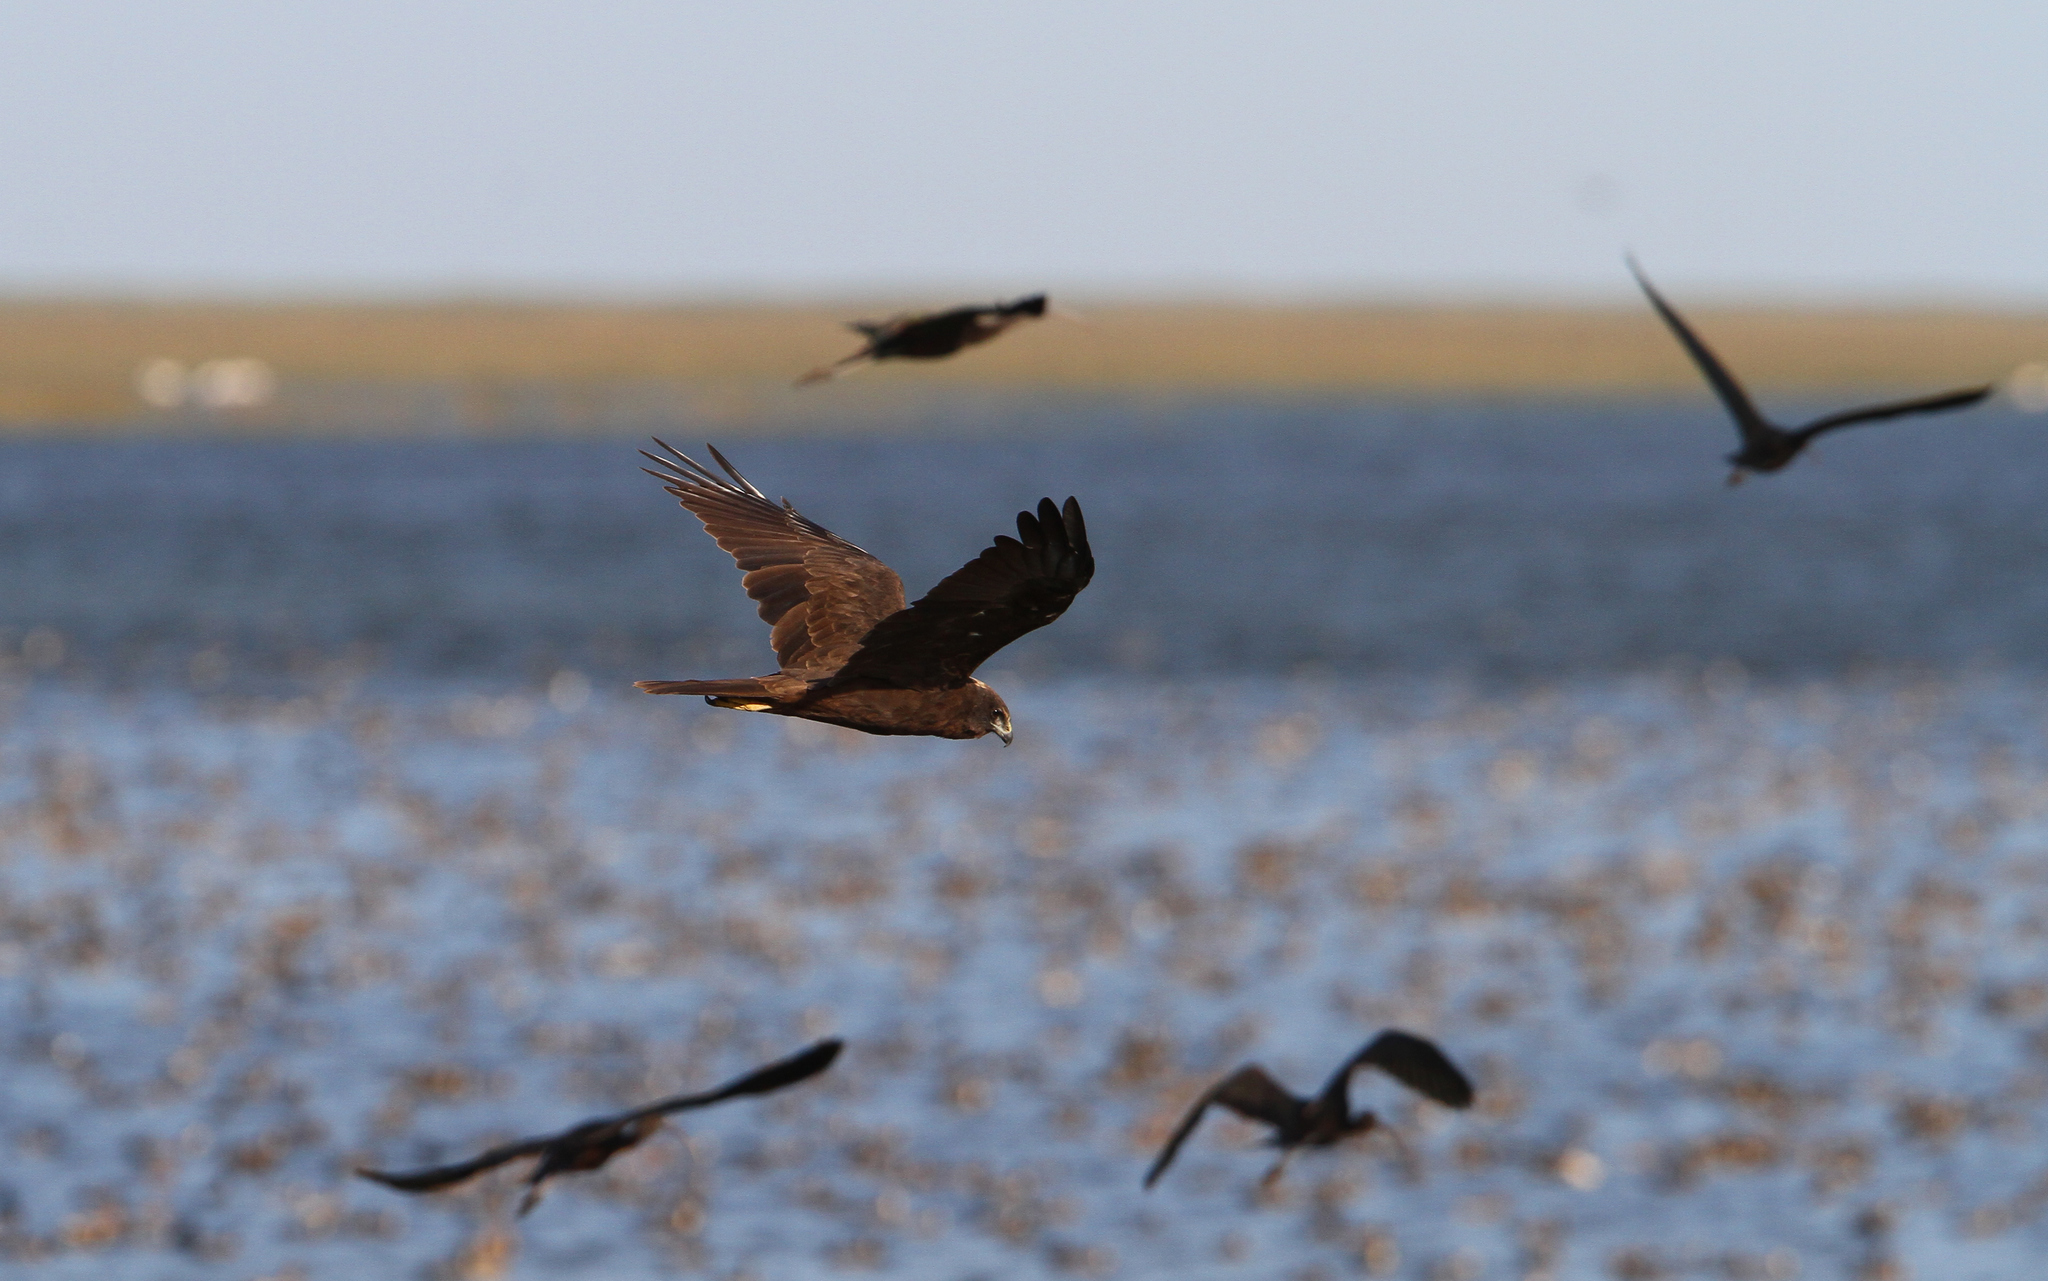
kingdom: Animalia
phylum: Chordata
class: Aves
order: Accipitriformes
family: Accipitridae
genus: Circus
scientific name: Circus aeruginosus
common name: Western marsh harrier
